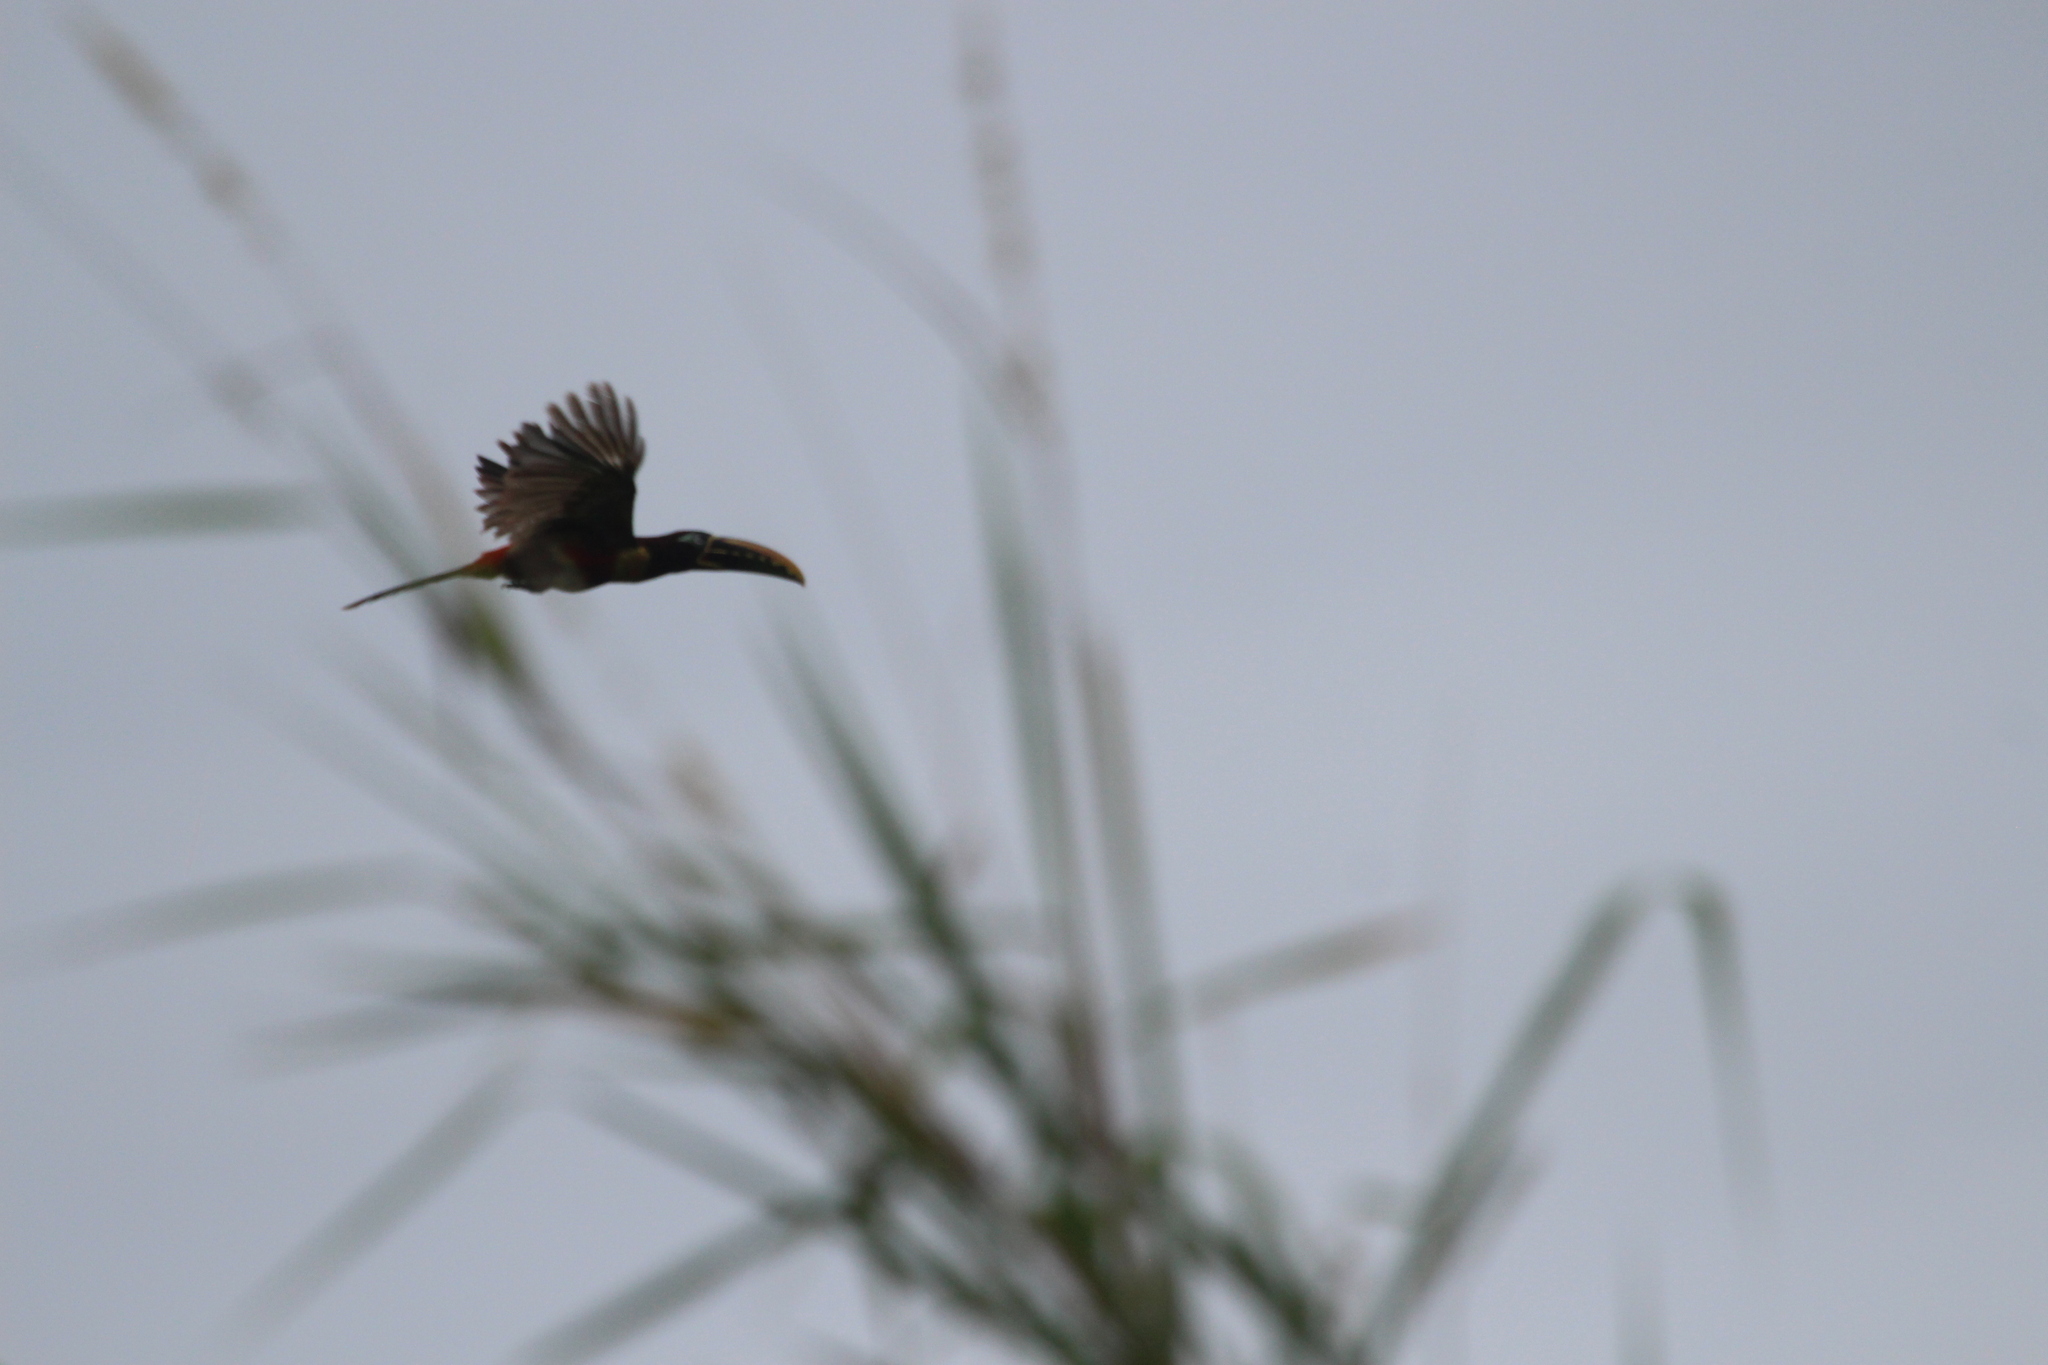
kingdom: Animalia
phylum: Chordata
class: Aves
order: Piciformes
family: Ramphastidae
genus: Pteroglossus
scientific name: Pteroglossus castanotis
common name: Chestnut-eared aracari
